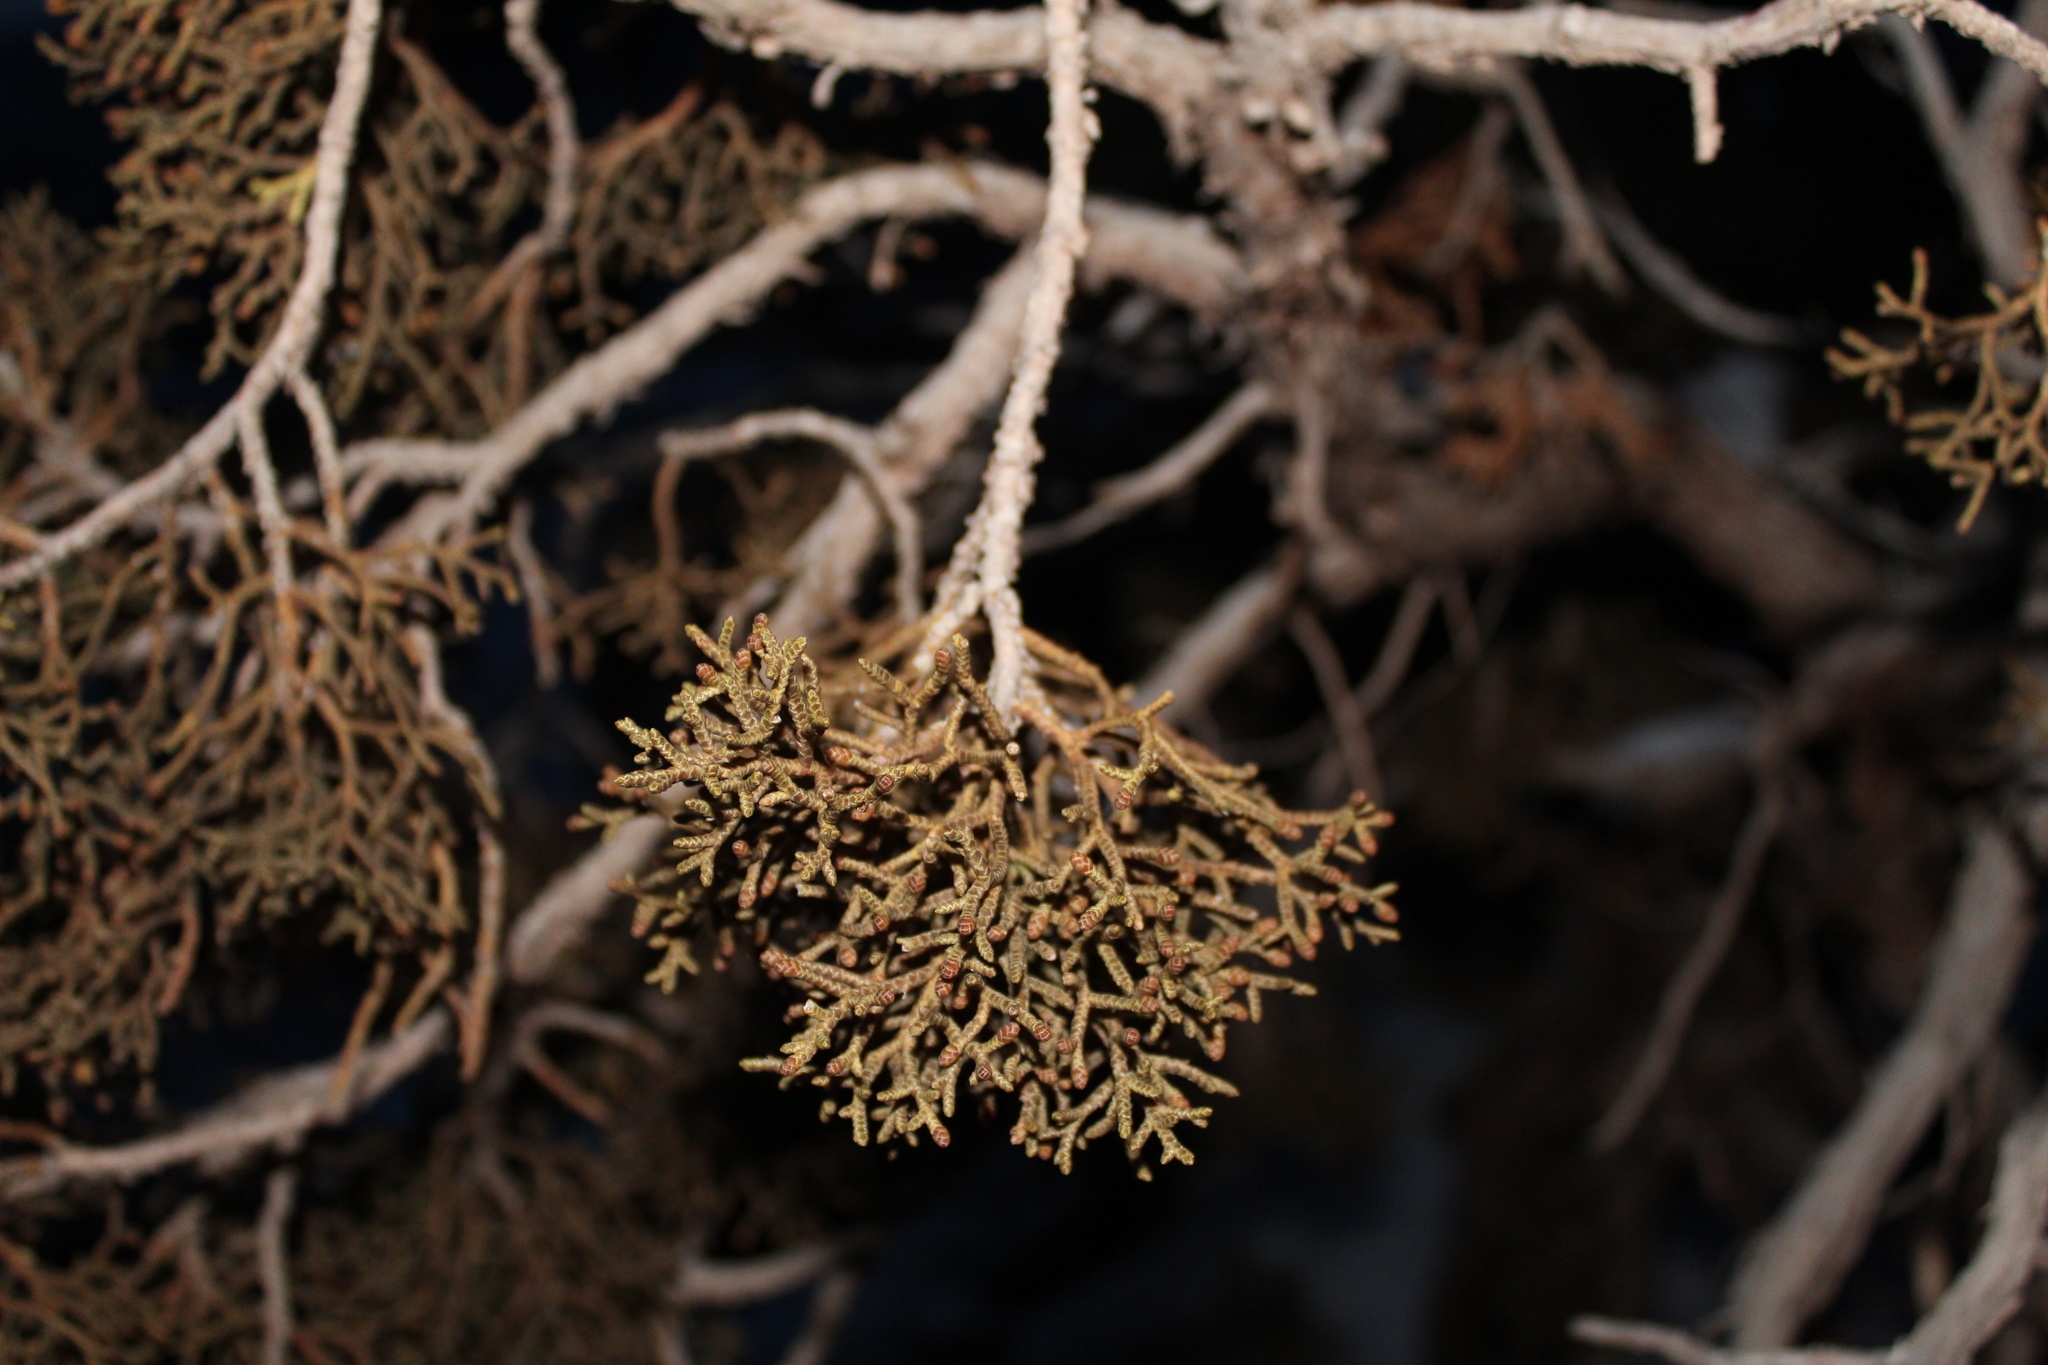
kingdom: Plantae
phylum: Tracheophyta
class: Pinopsida
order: Pinales
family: Cupressaceae
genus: Juniperus
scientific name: Juniperus osteosperma
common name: Utah juniper
